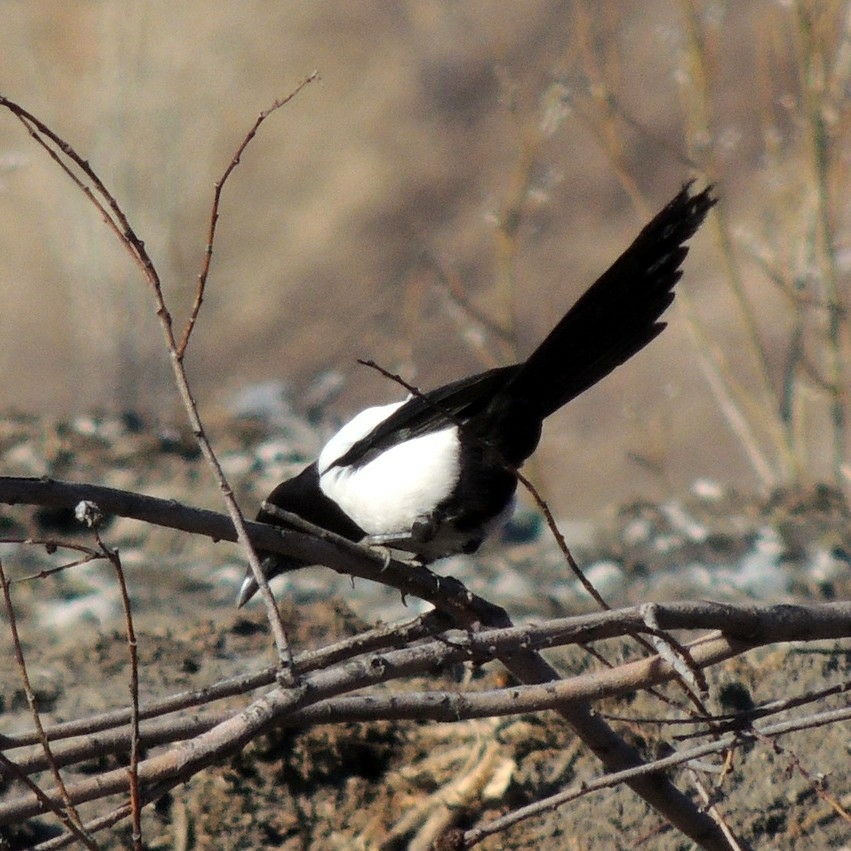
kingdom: Animalia
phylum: Chordata
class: Aves
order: Passeriformes
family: Corvidae
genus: Pica
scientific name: Pica pica
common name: Eurasian magpie
